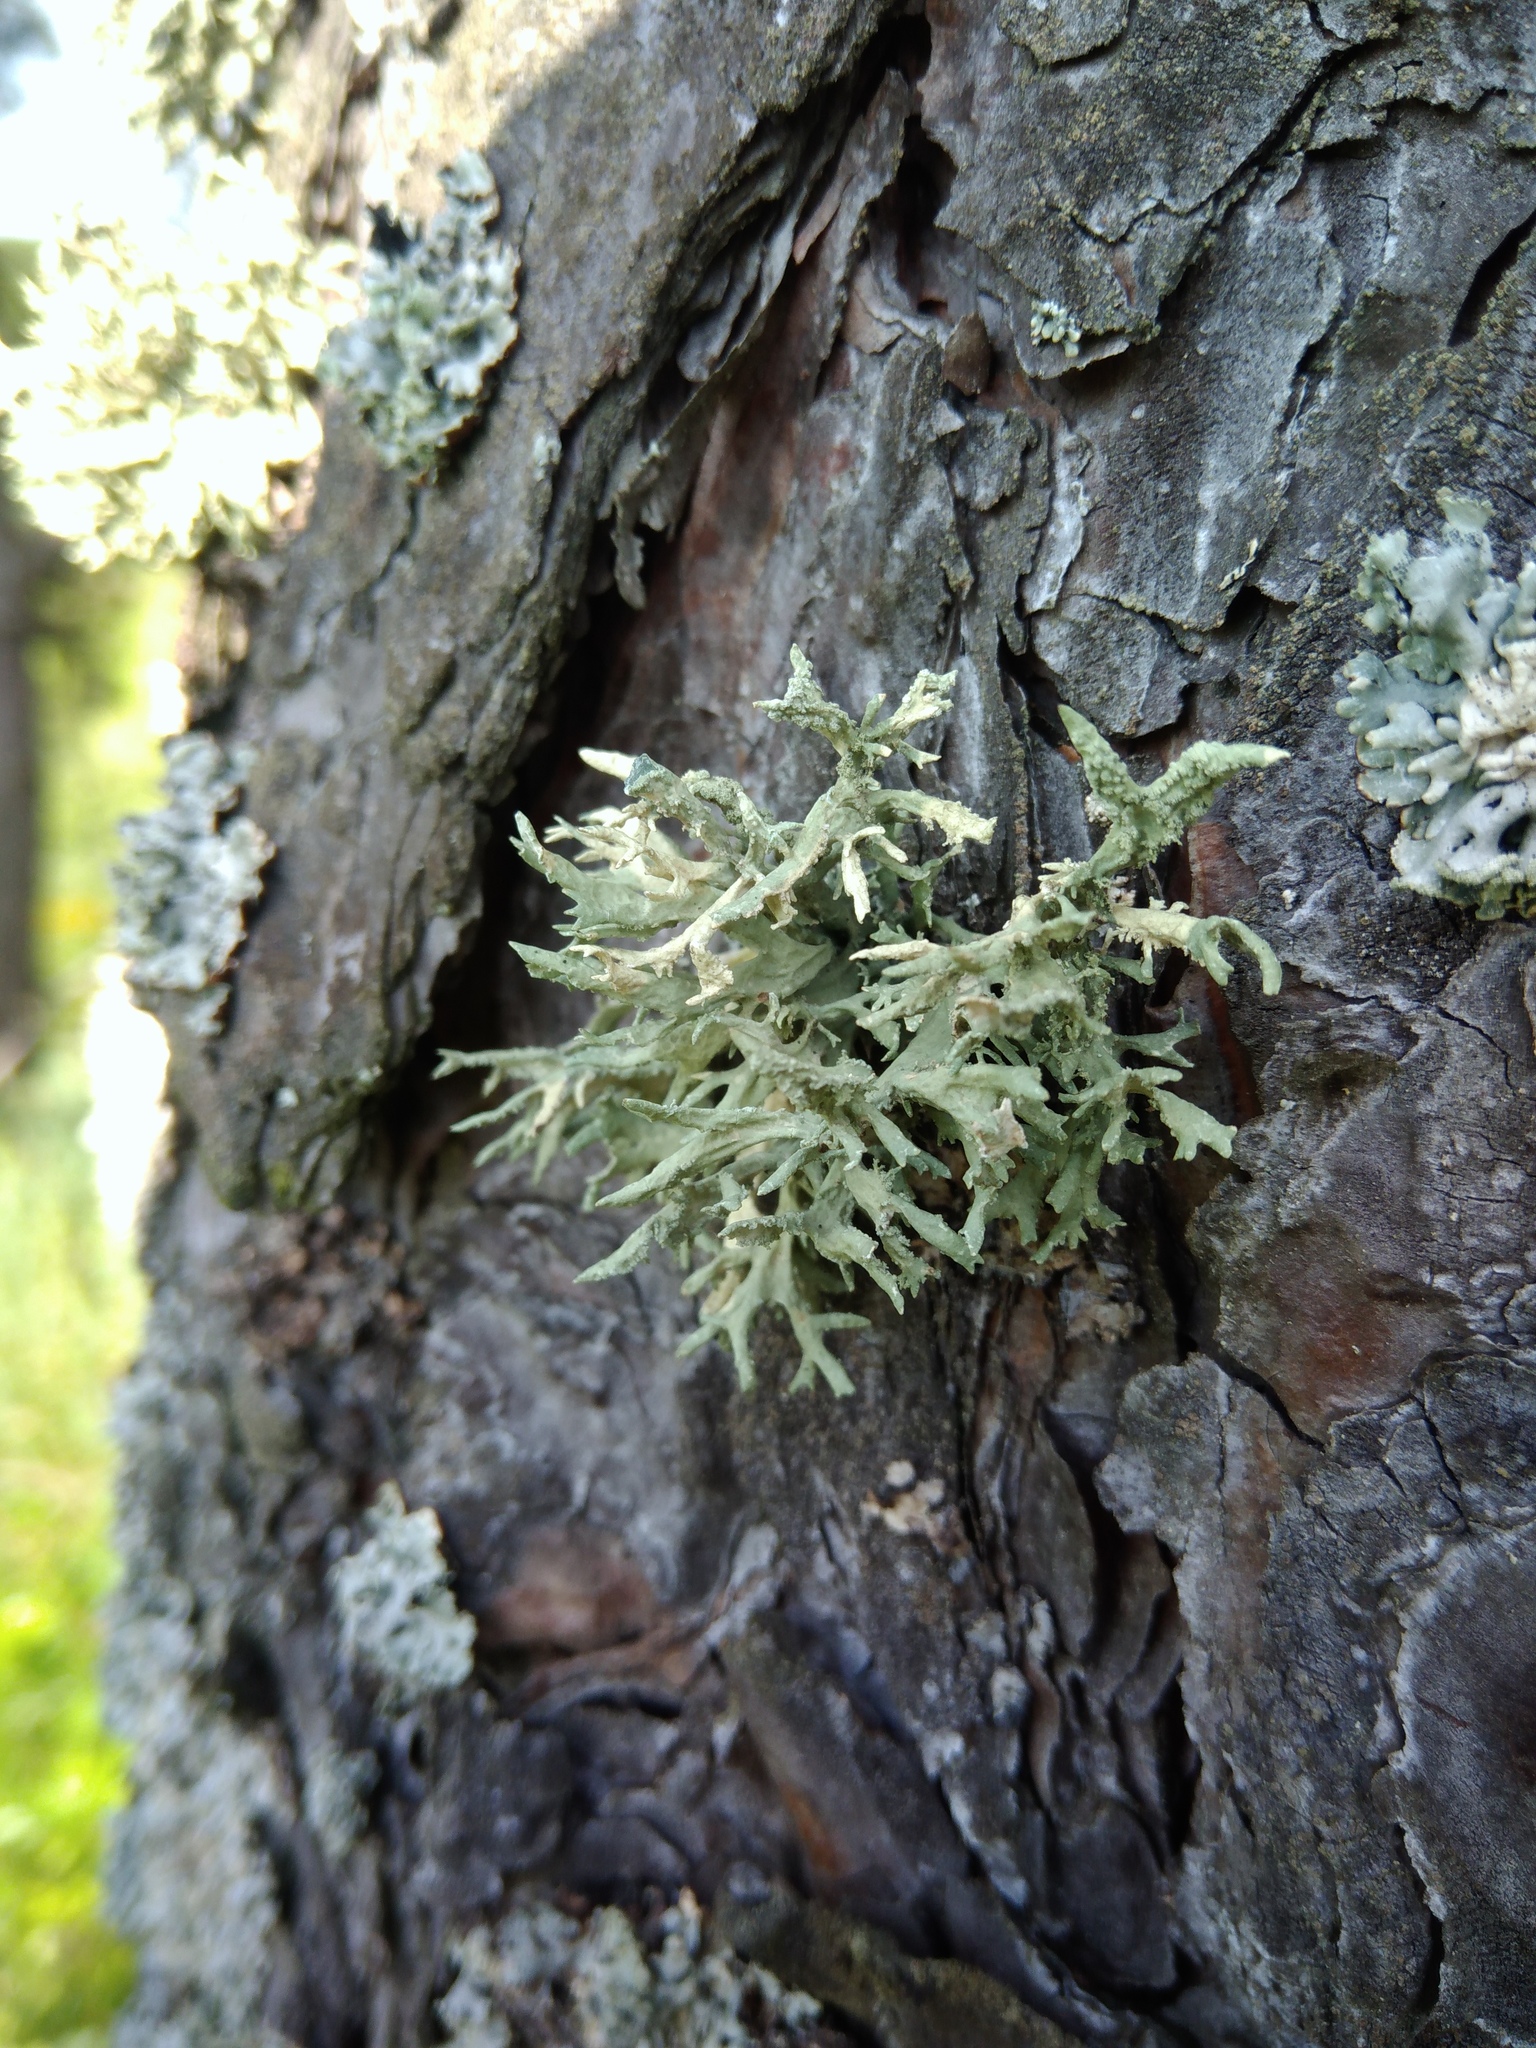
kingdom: Fungi
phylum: Ascomycota
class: Lecanoromycetes
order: Lecanorales
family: Parmeliaceae
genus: Evernia
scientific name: Evernia prunastri
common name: Oak moss
